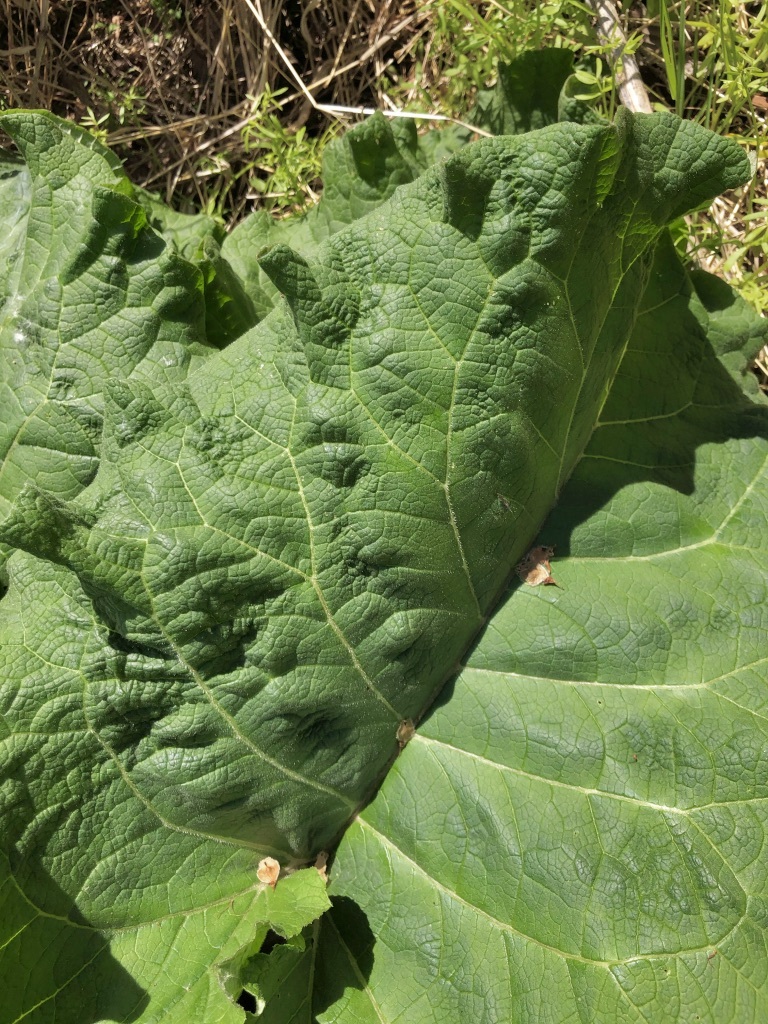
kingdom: Plantae
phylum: Tracheophyta
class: Magnoliopsida
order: Asterales
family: Asteraceae
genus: Arctium
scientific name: Arctium lappa
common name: Greater burdock
